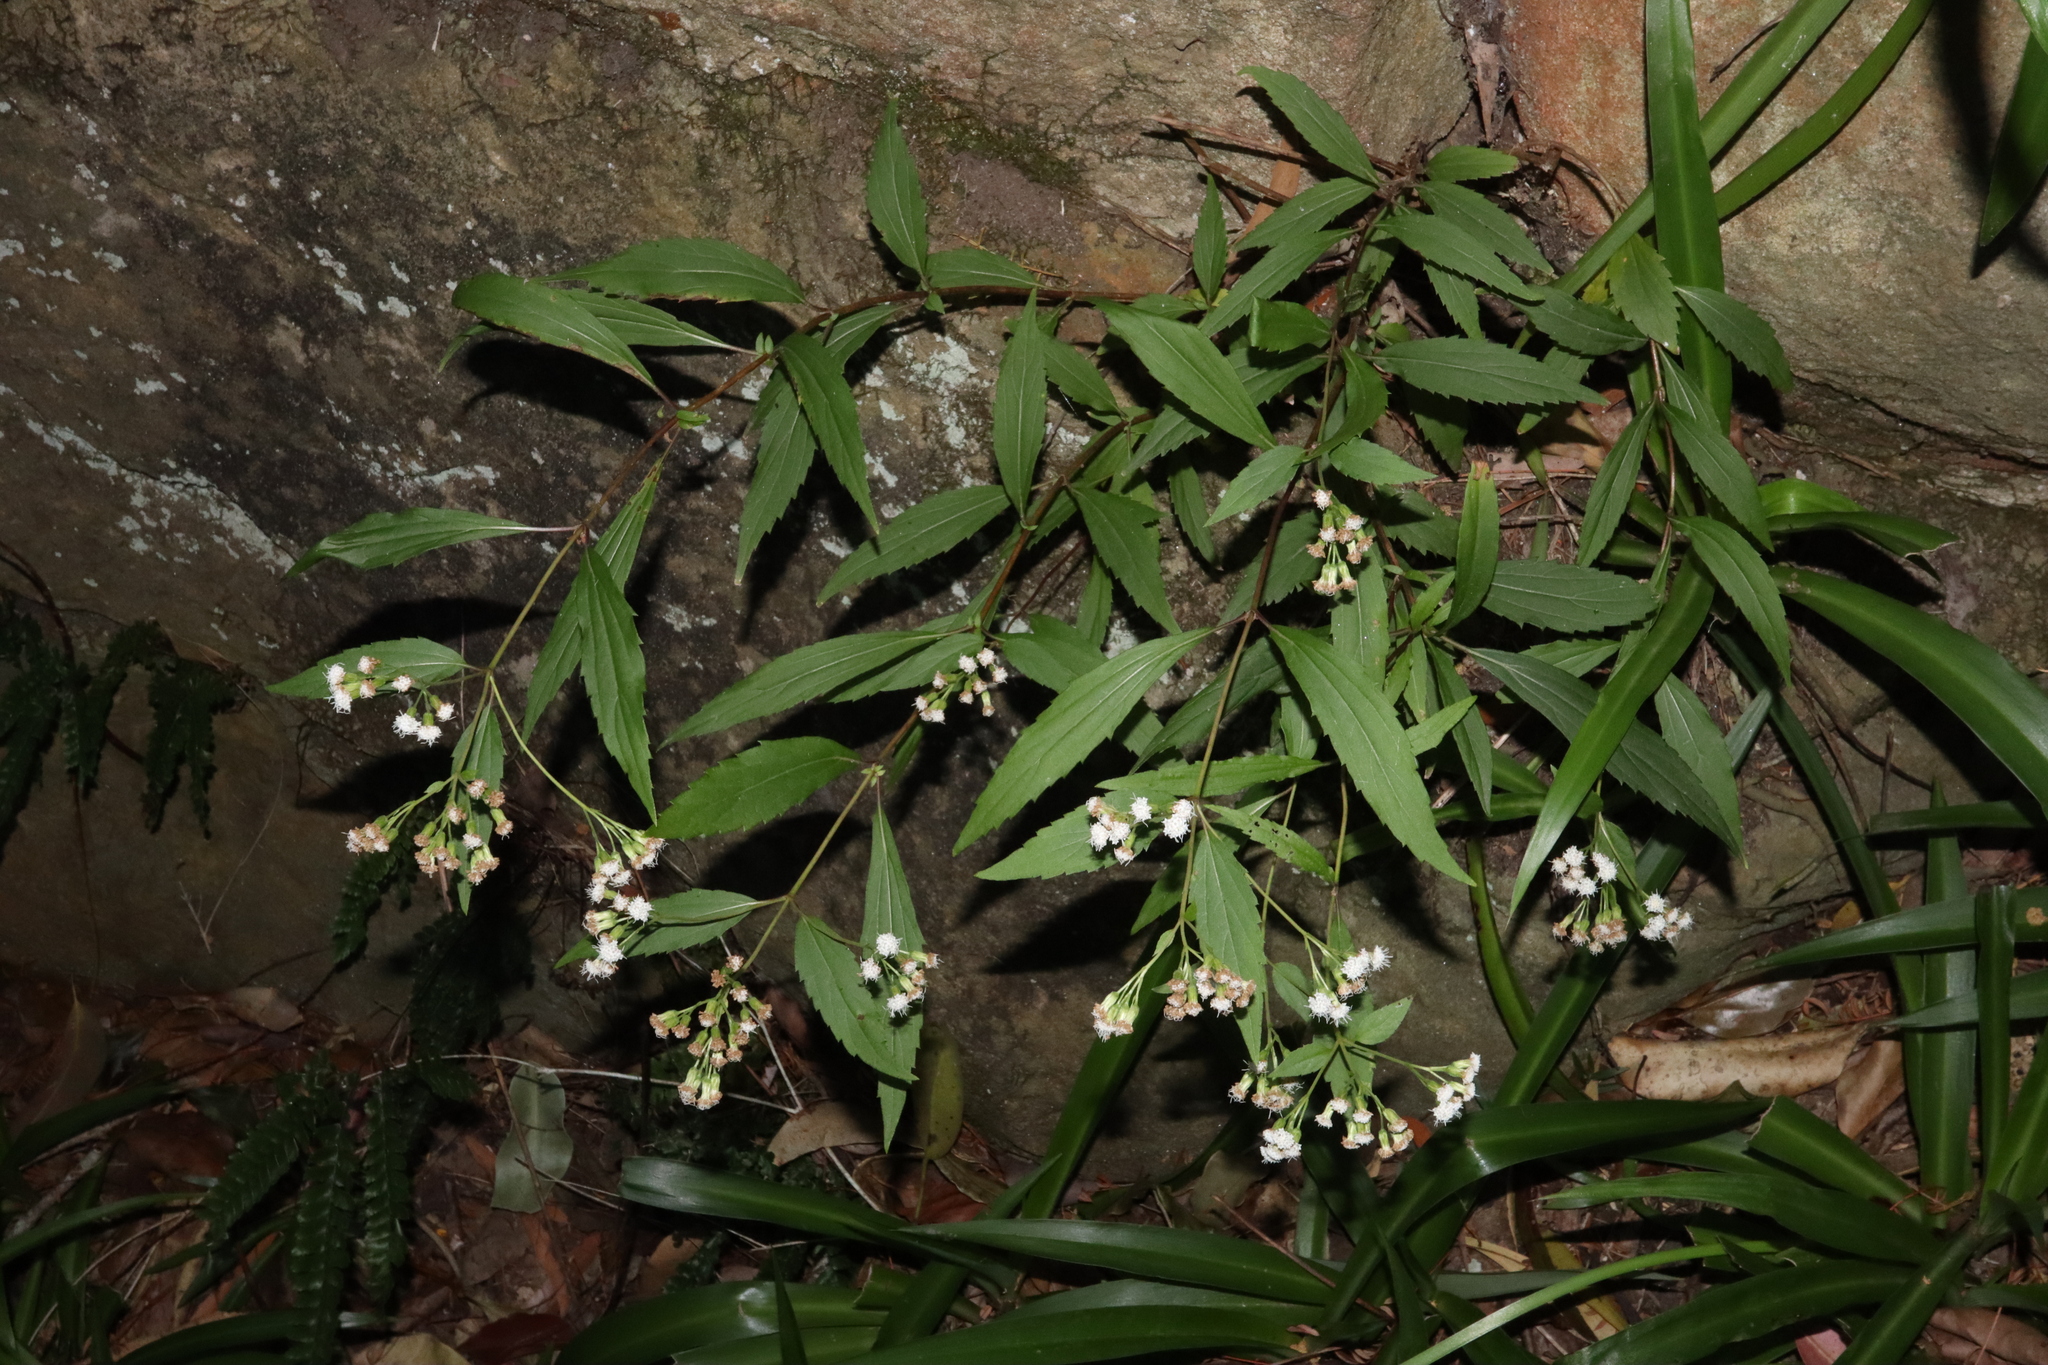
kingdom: Plantae
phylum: Tracheophyta
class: Magnoliopsida
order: Asterales
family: Asteraceae
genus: Ageratina
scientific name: Ageratina riparia
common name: Creeping croftonweed
